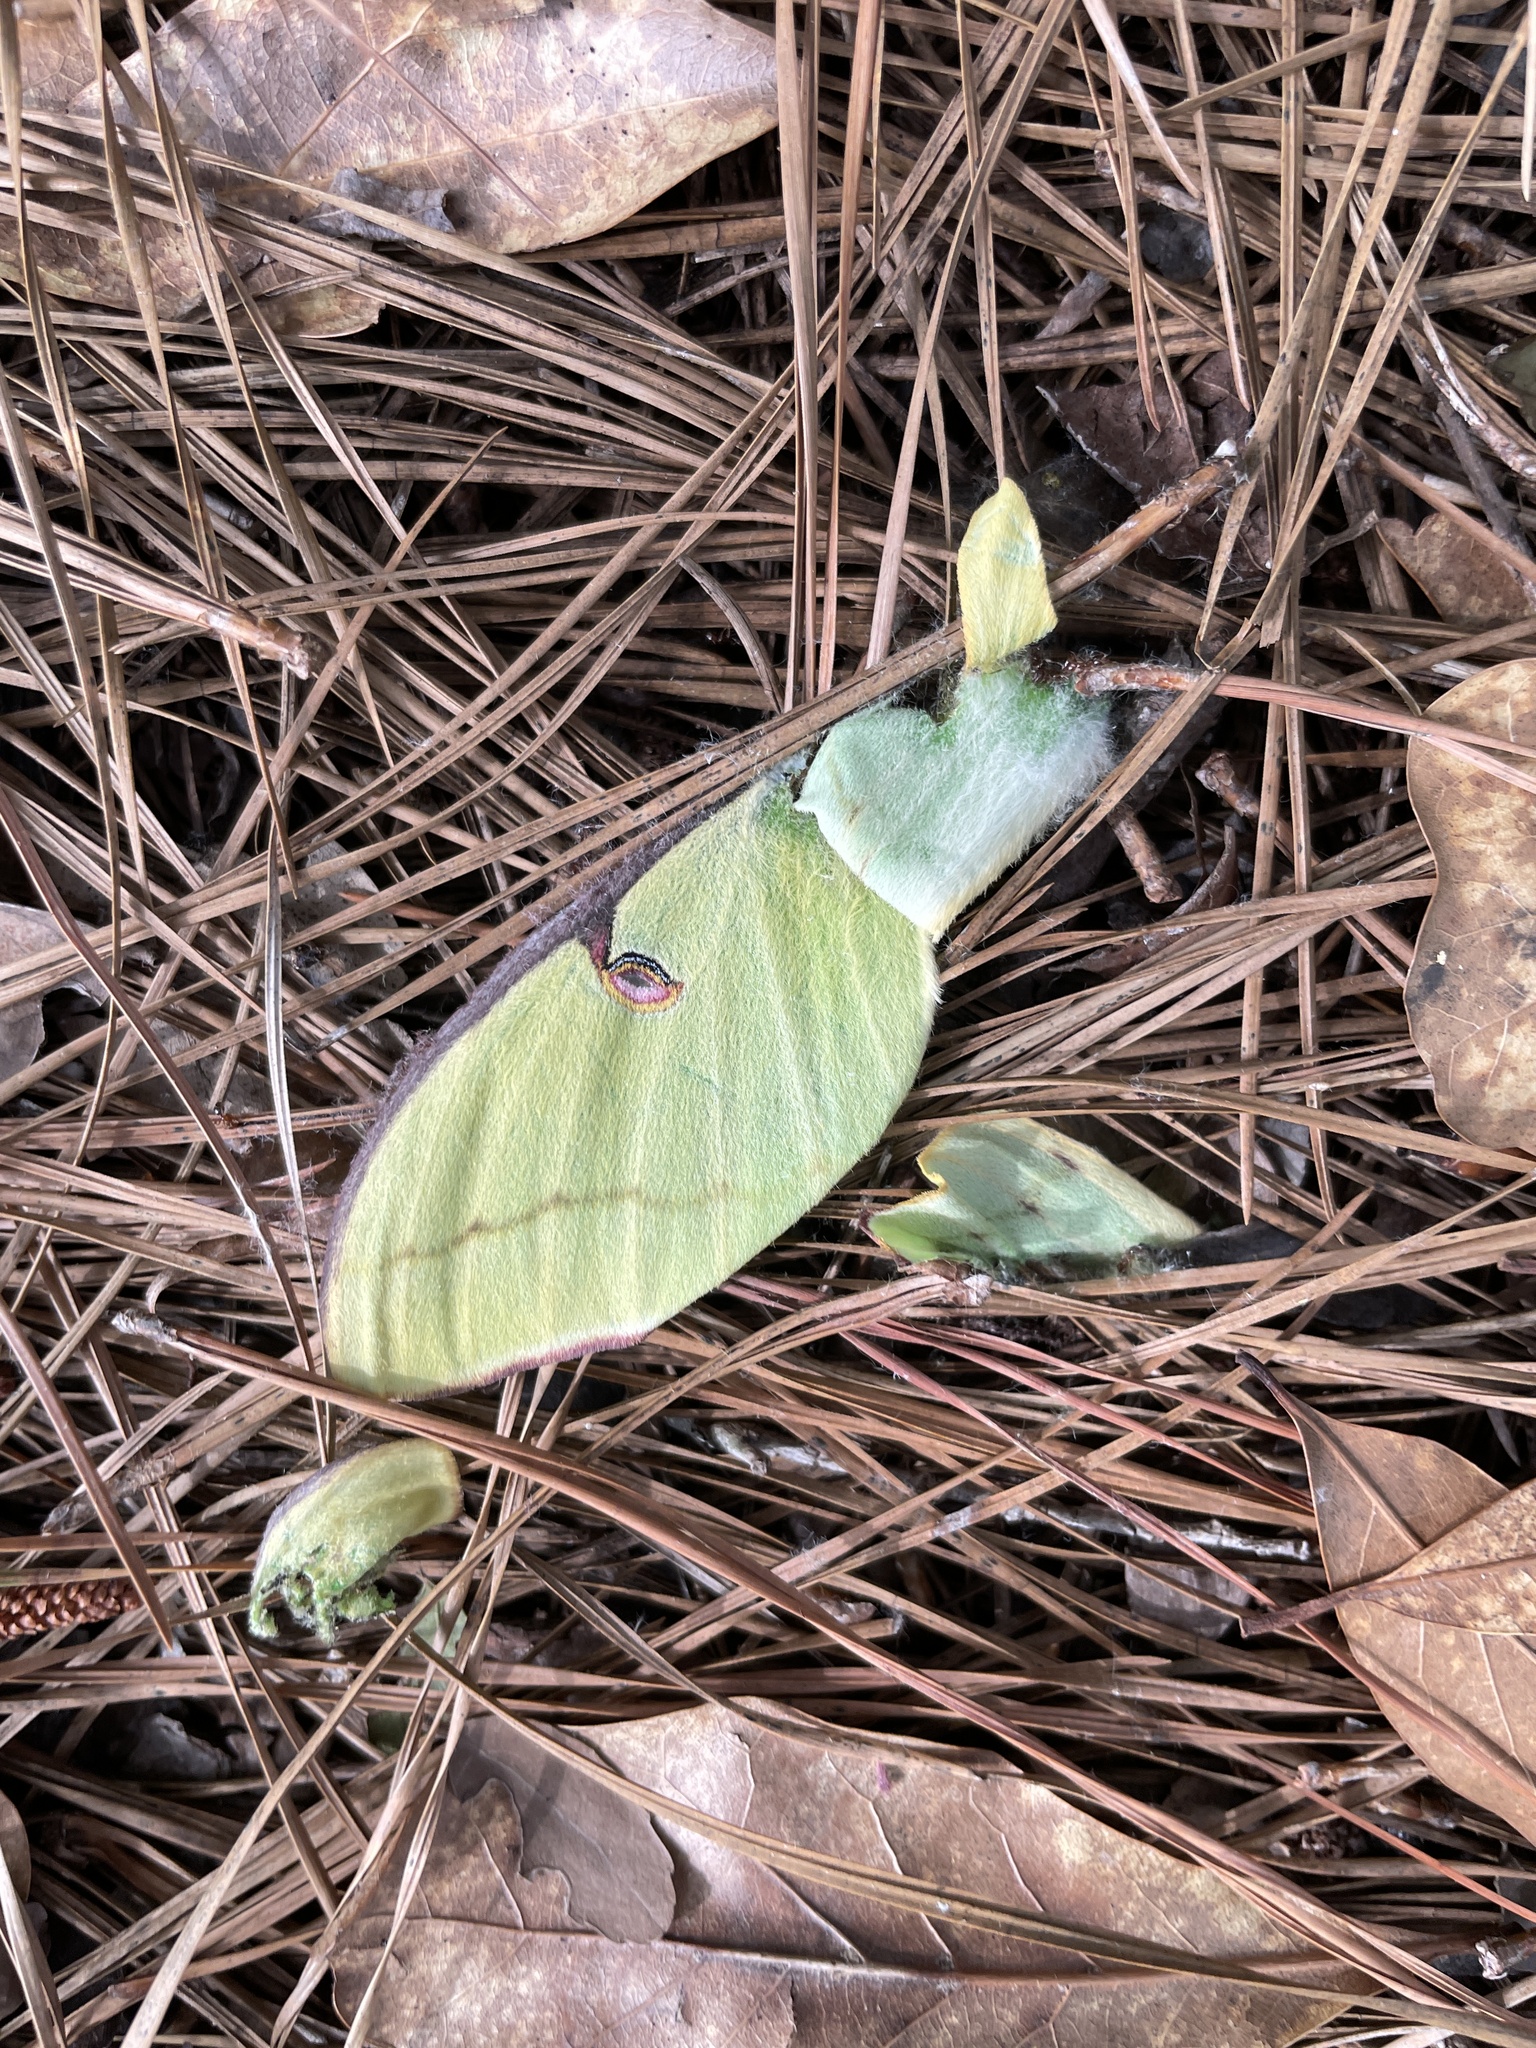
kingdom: Animalia
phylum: Arthropoda
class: Insecta
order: Lepidoptera
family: Saturniidae
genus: Actias
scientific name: Actias luna
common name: Luna moth
